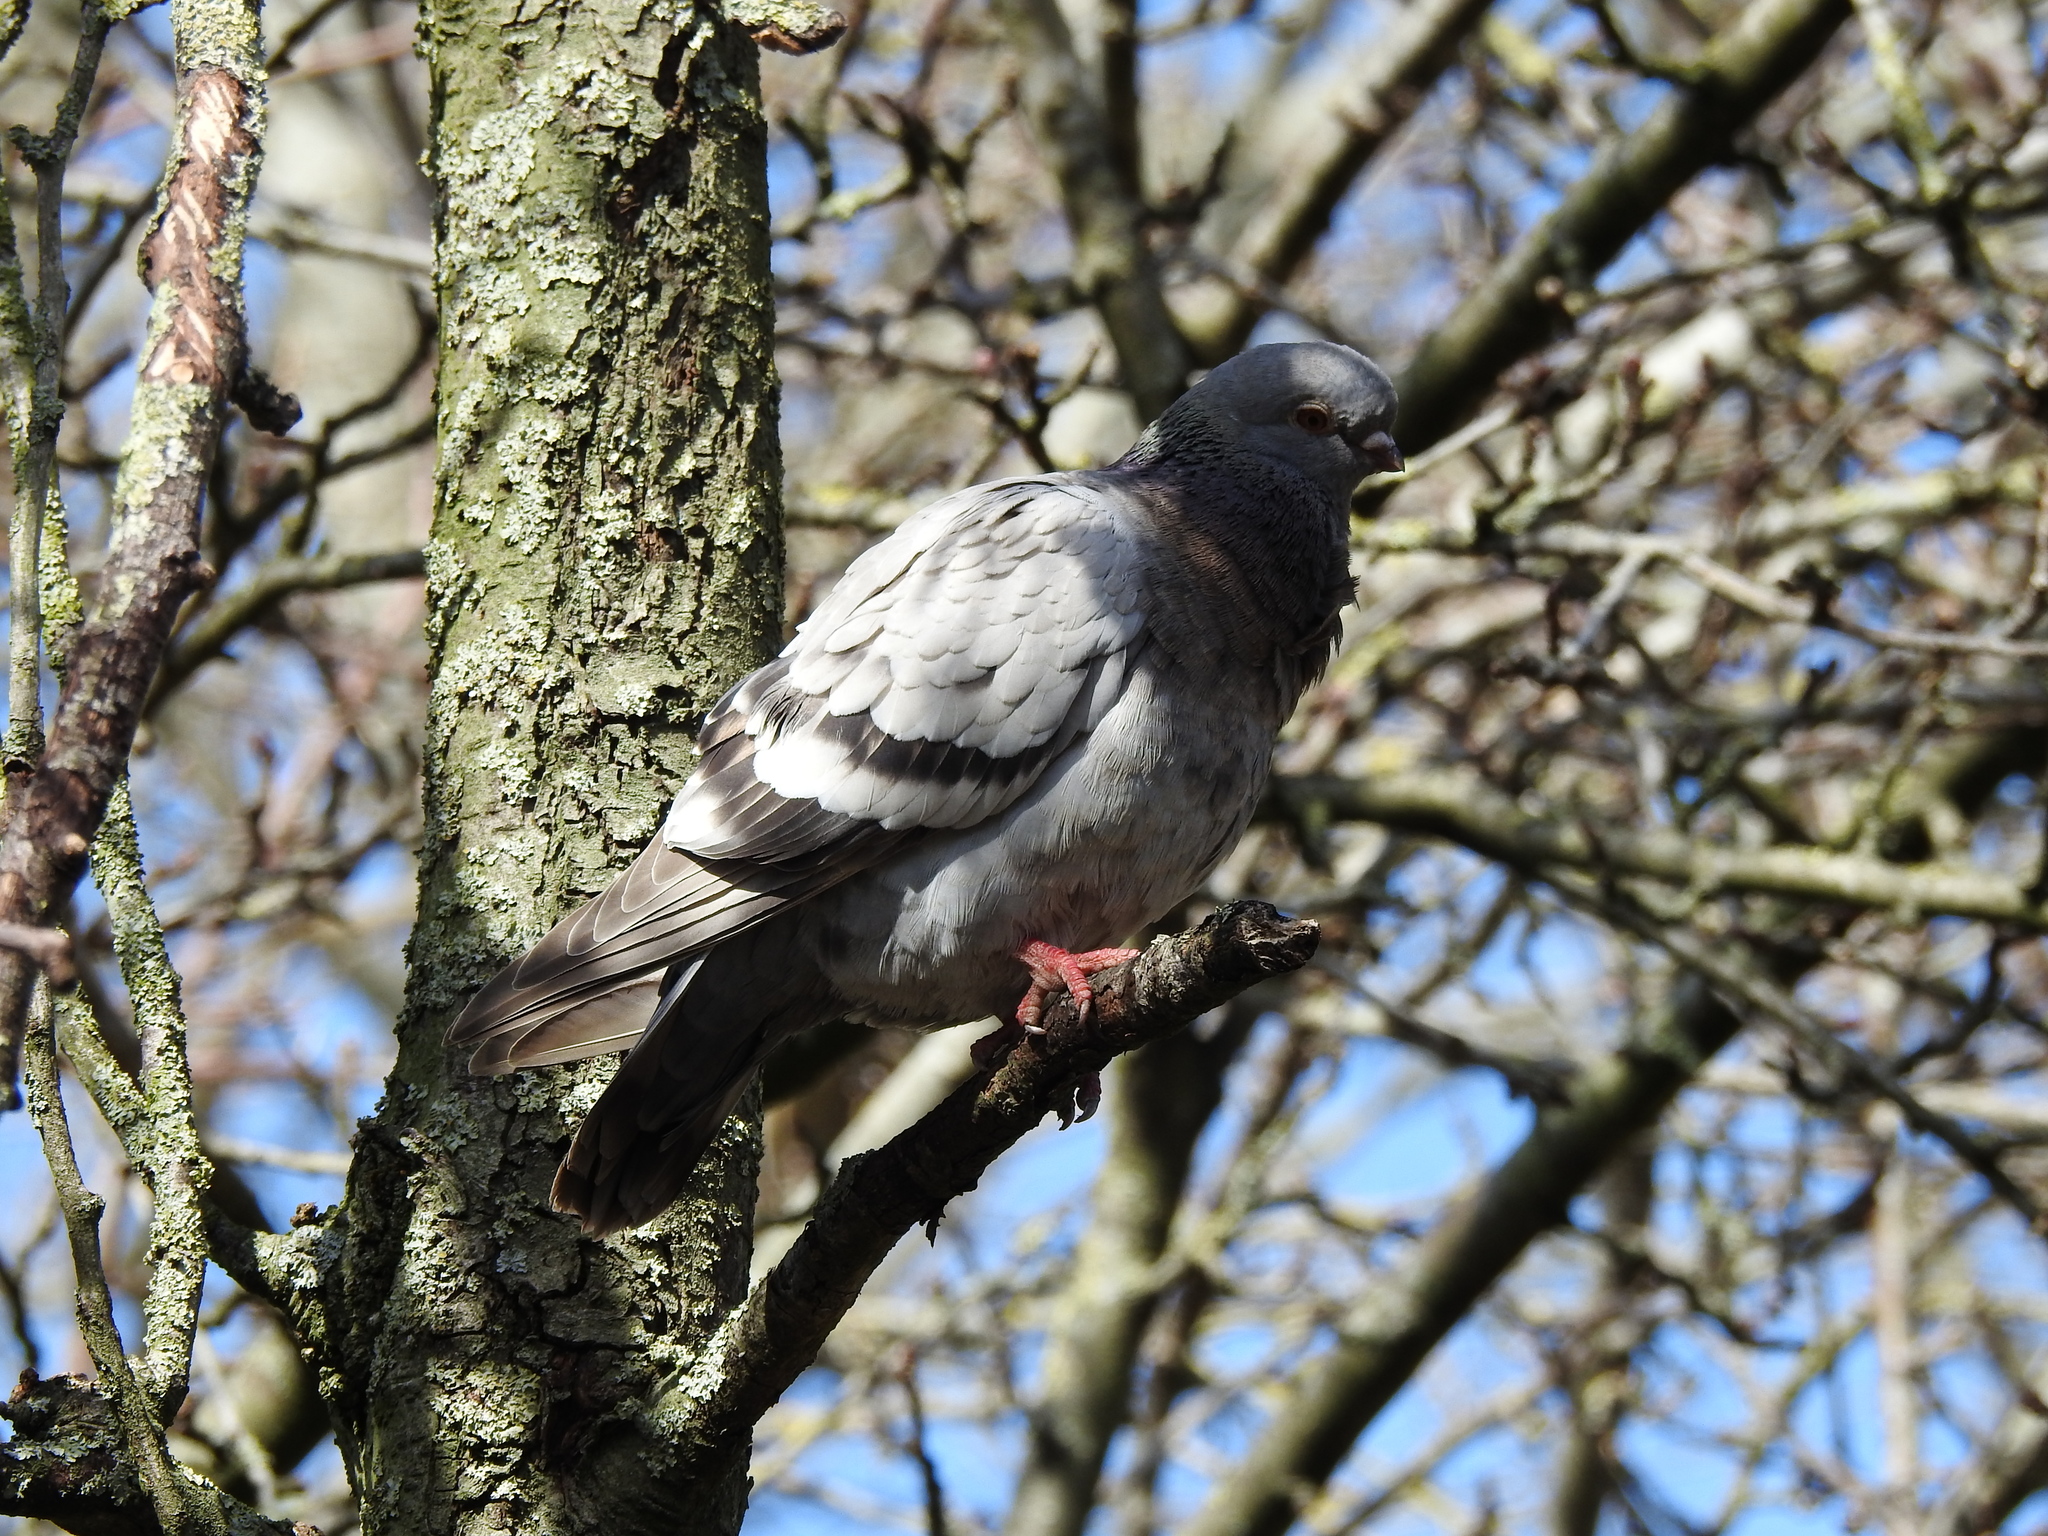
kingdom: Animalia
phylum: Chordata
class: Aves
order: Columbiformes
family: Columbidae
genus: Columba
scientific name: Columba livia
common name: Rock pigeon
